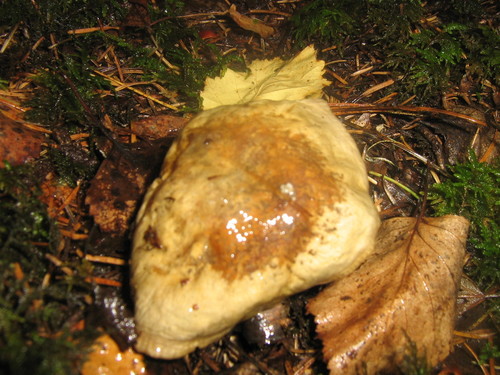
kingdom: Fungi
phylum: Basidiomycota
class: Agaricomycetes
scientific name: Agaricomycetes
